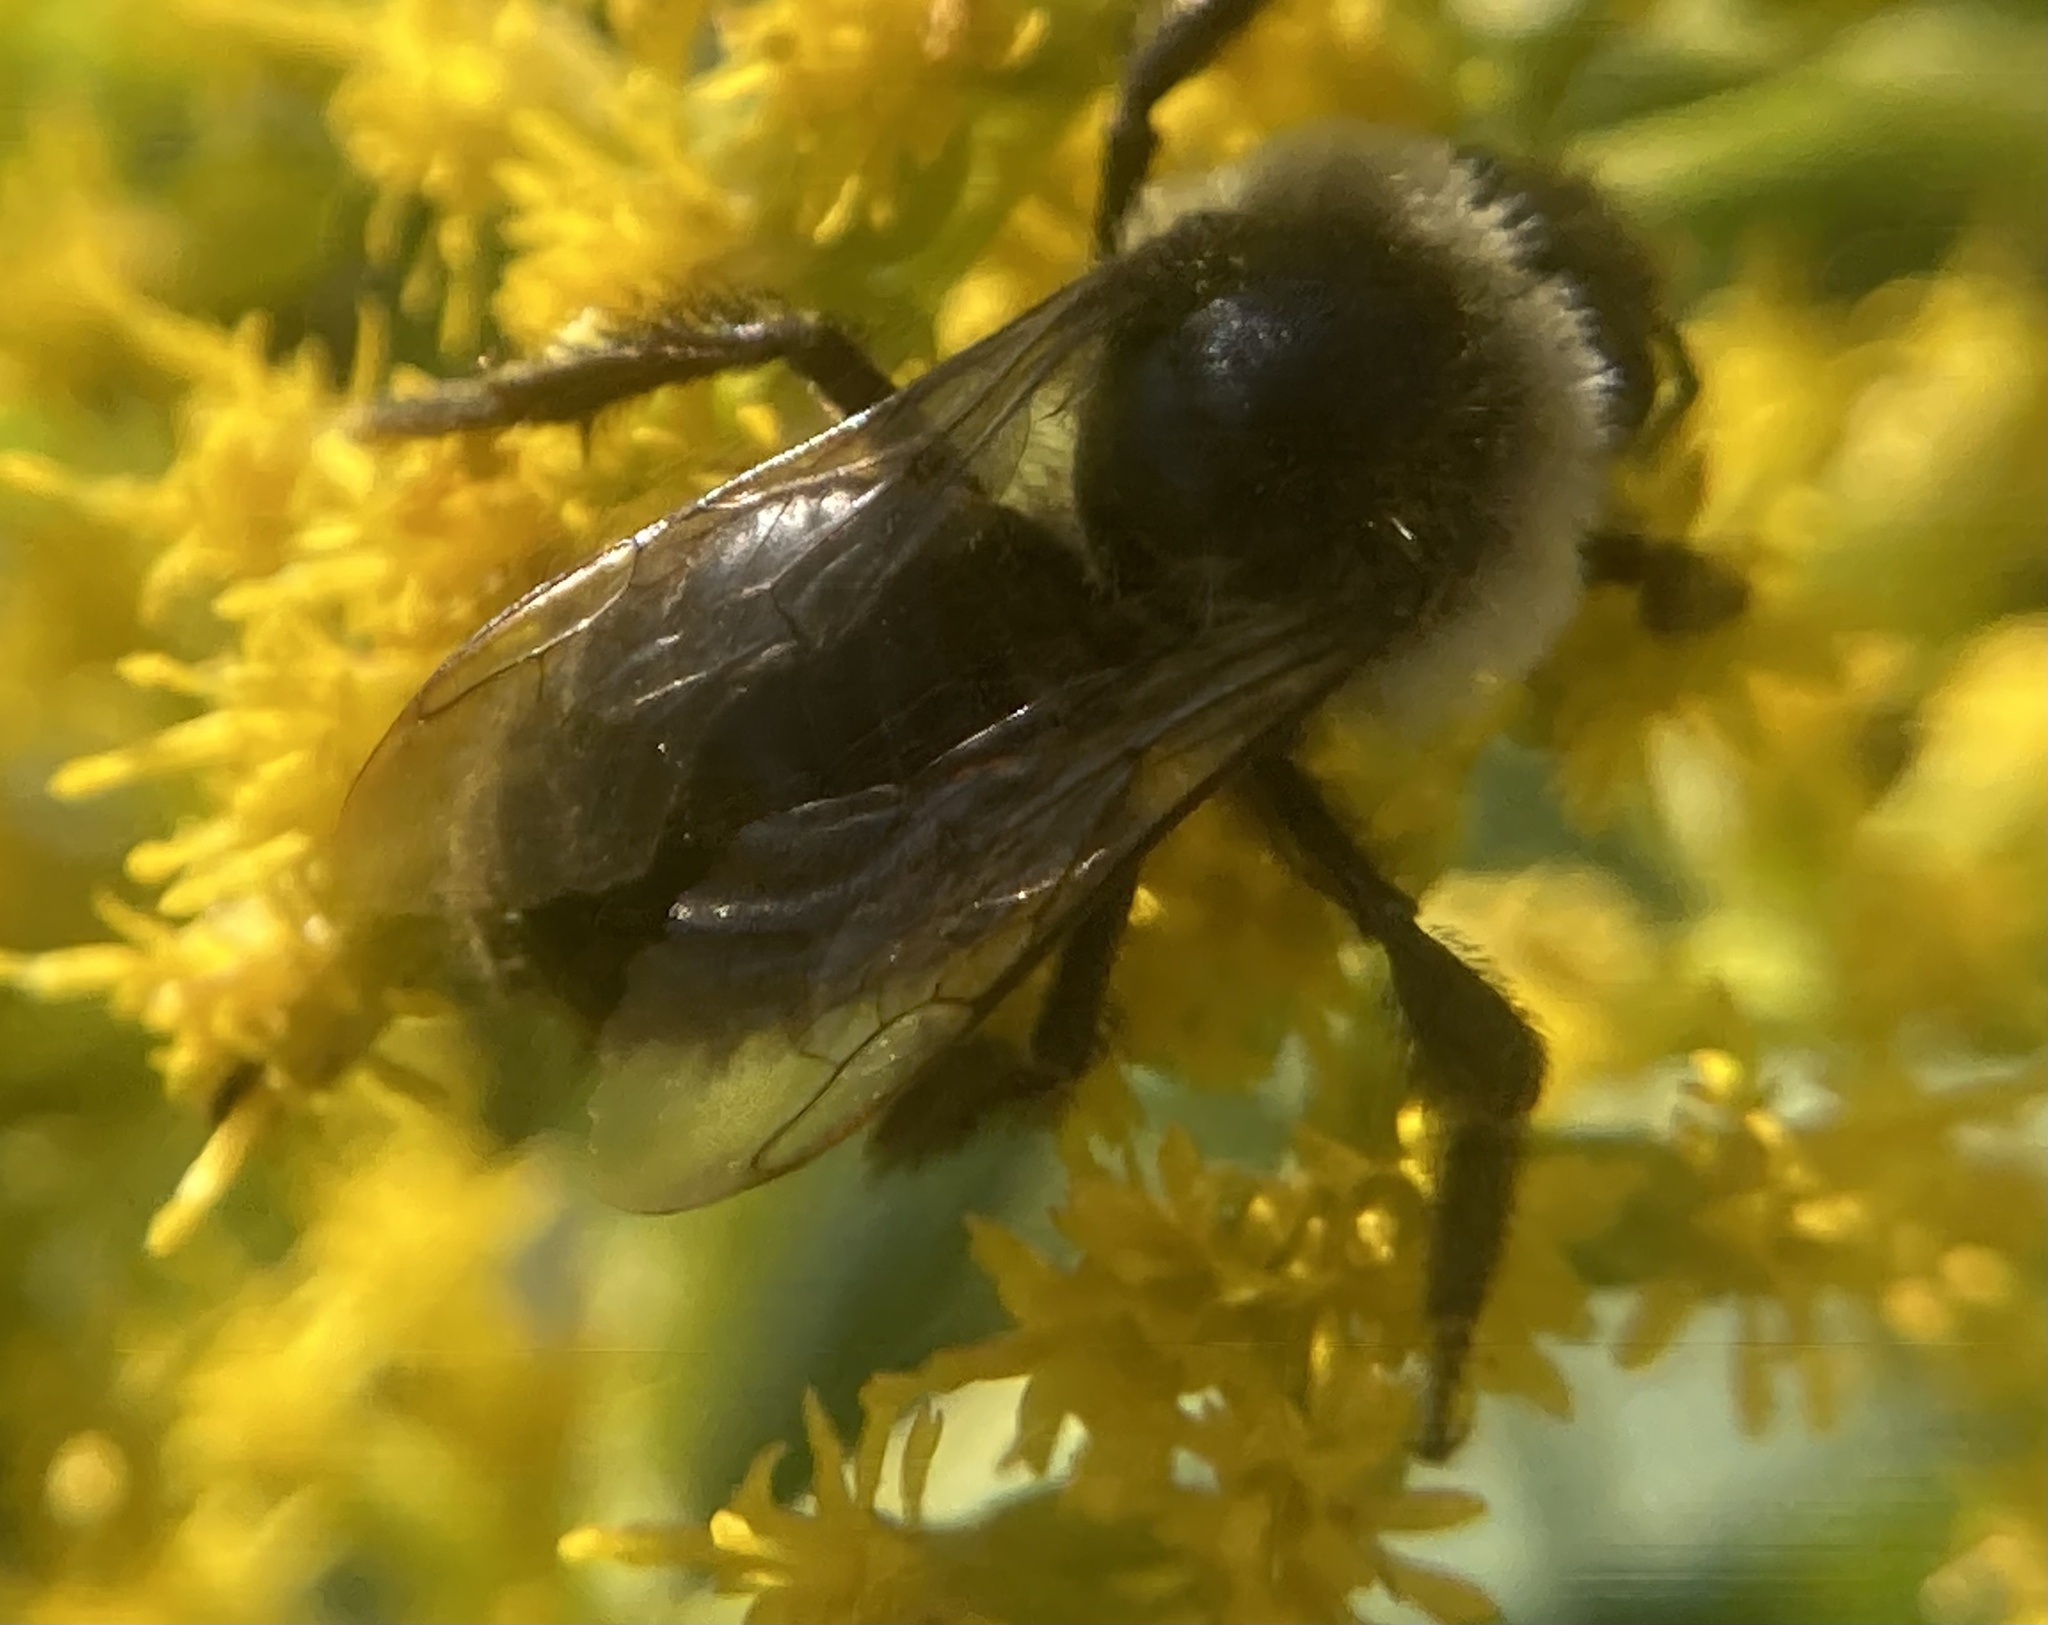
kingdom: Animalia
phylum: Arthropoda
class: Insecta
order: Hymenoptera
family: Apidae
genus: Bombus
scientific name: Bombus impatiens
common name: Common eastern bumble bee
